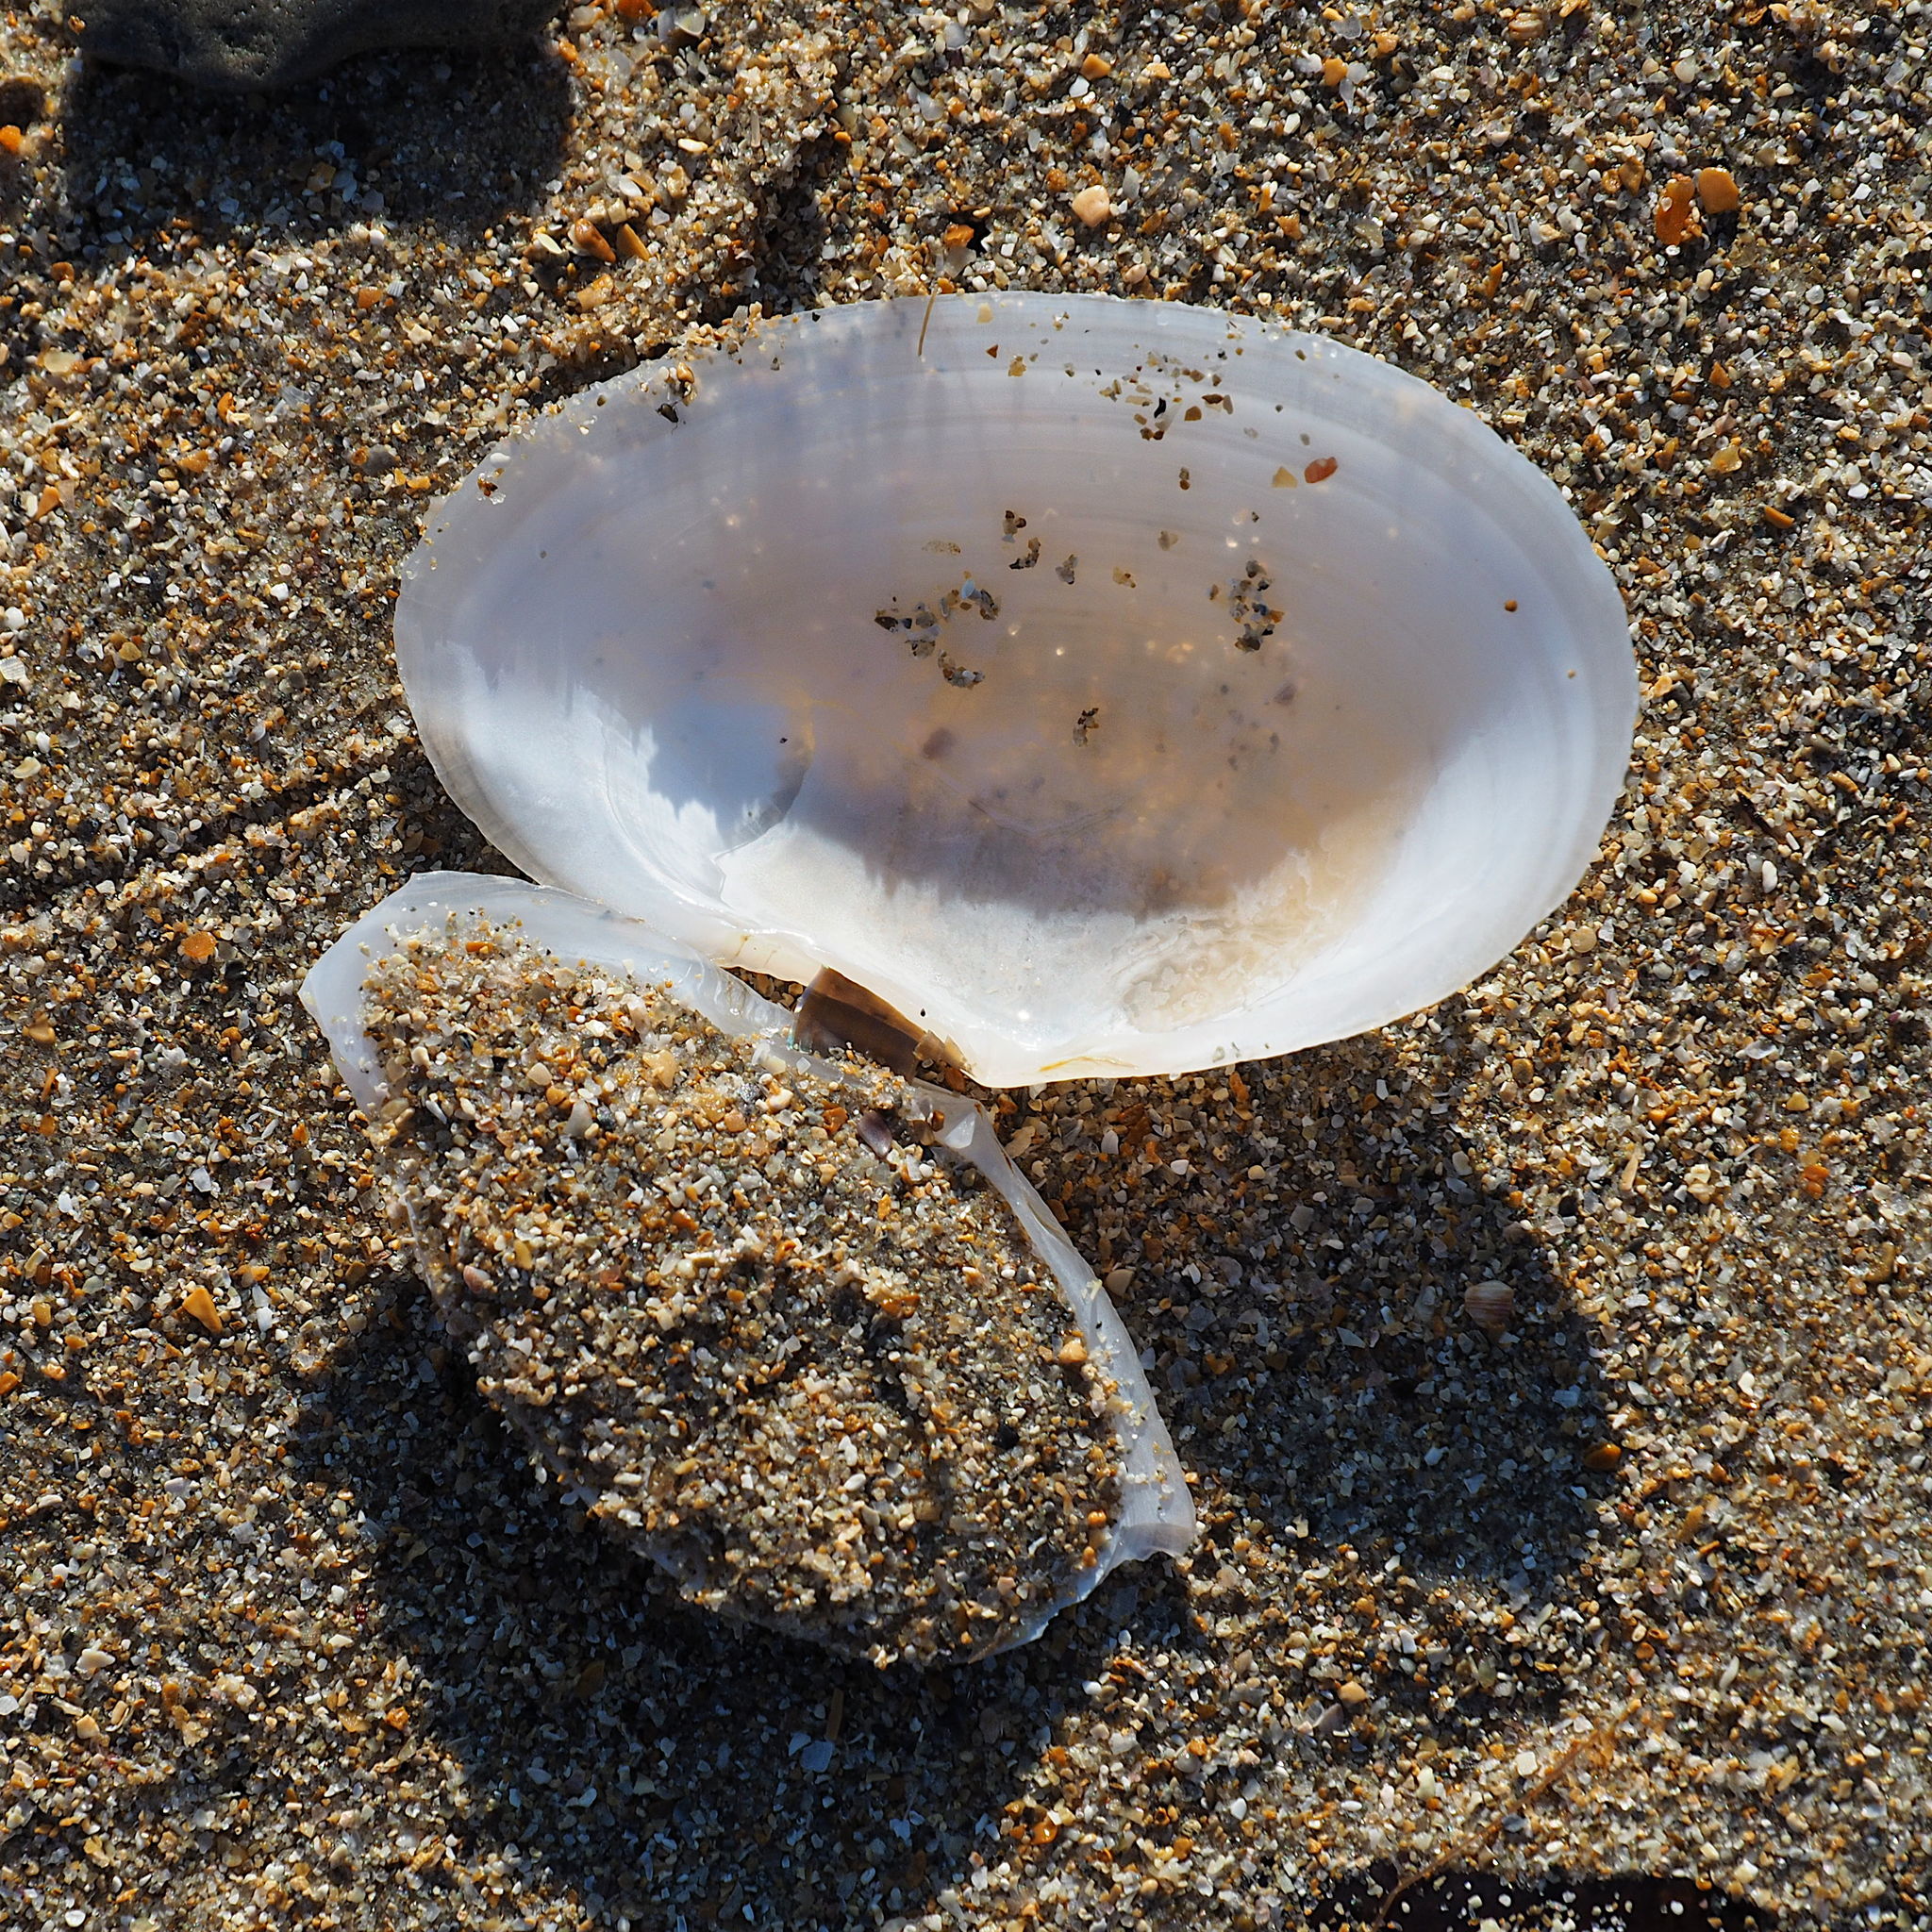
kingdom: Animalia
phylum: Mollusca
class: Bivalvia
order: Cardiida
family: Tellinidae
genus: Peronaea
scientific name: Peronaea planata
